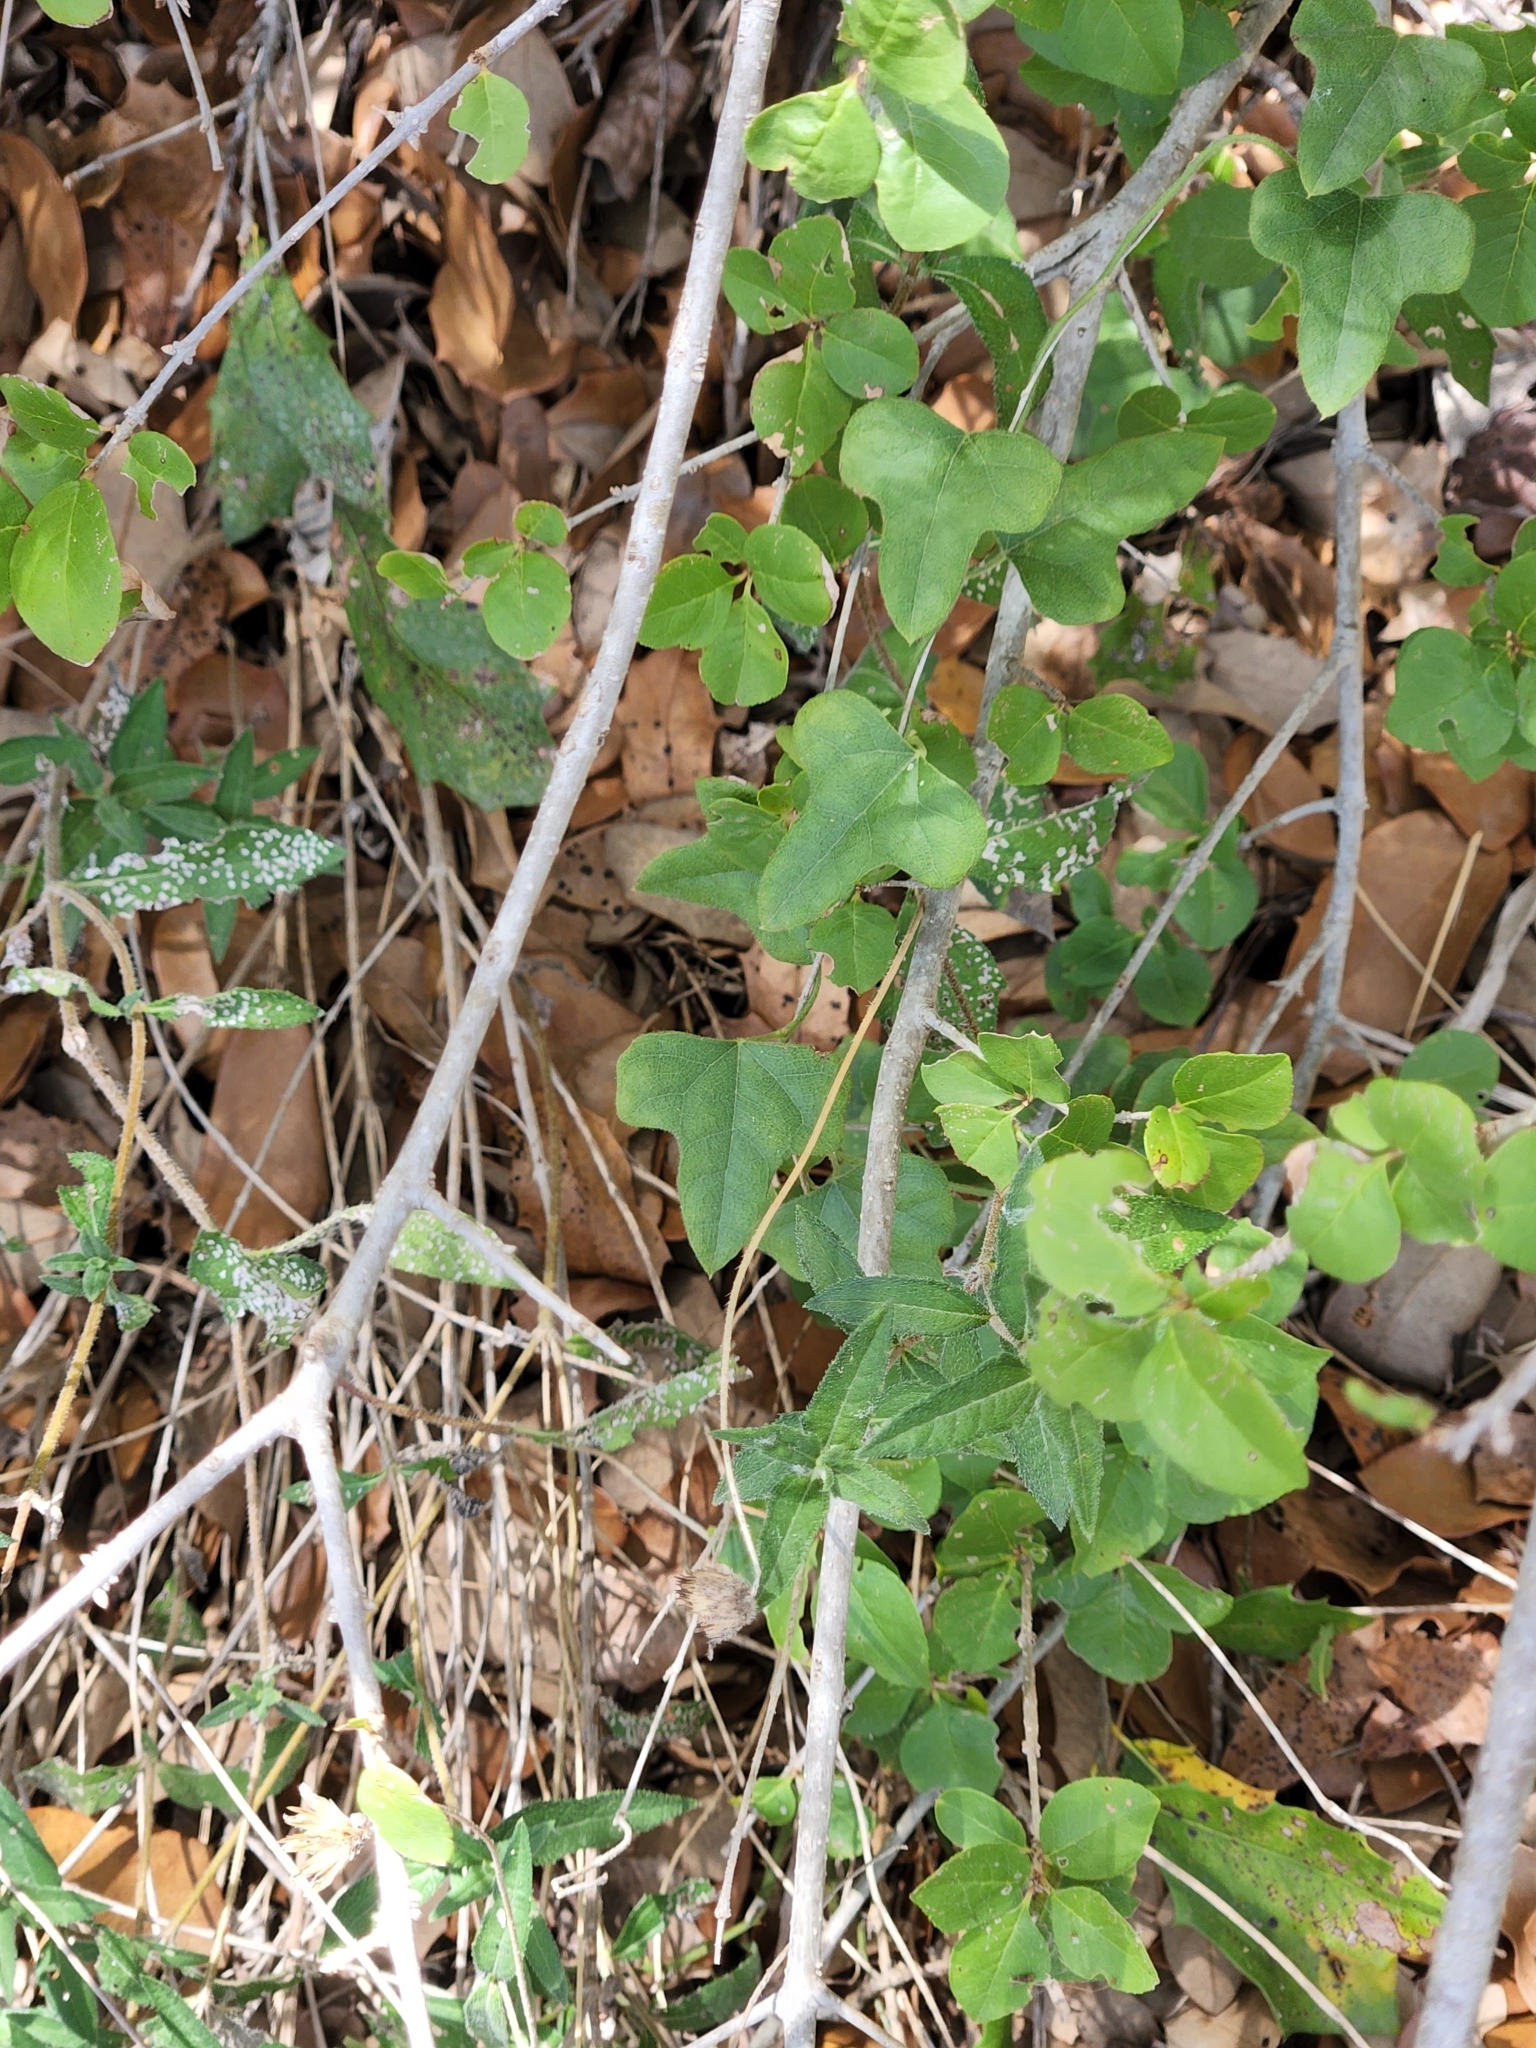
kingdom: Plantae
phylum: Tracheophyta
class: Magnoliopsida
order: Ranunculales
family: Menispermaceae
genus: Cocculus
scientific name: Cocculus carolinus
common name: Carolina moonseed
